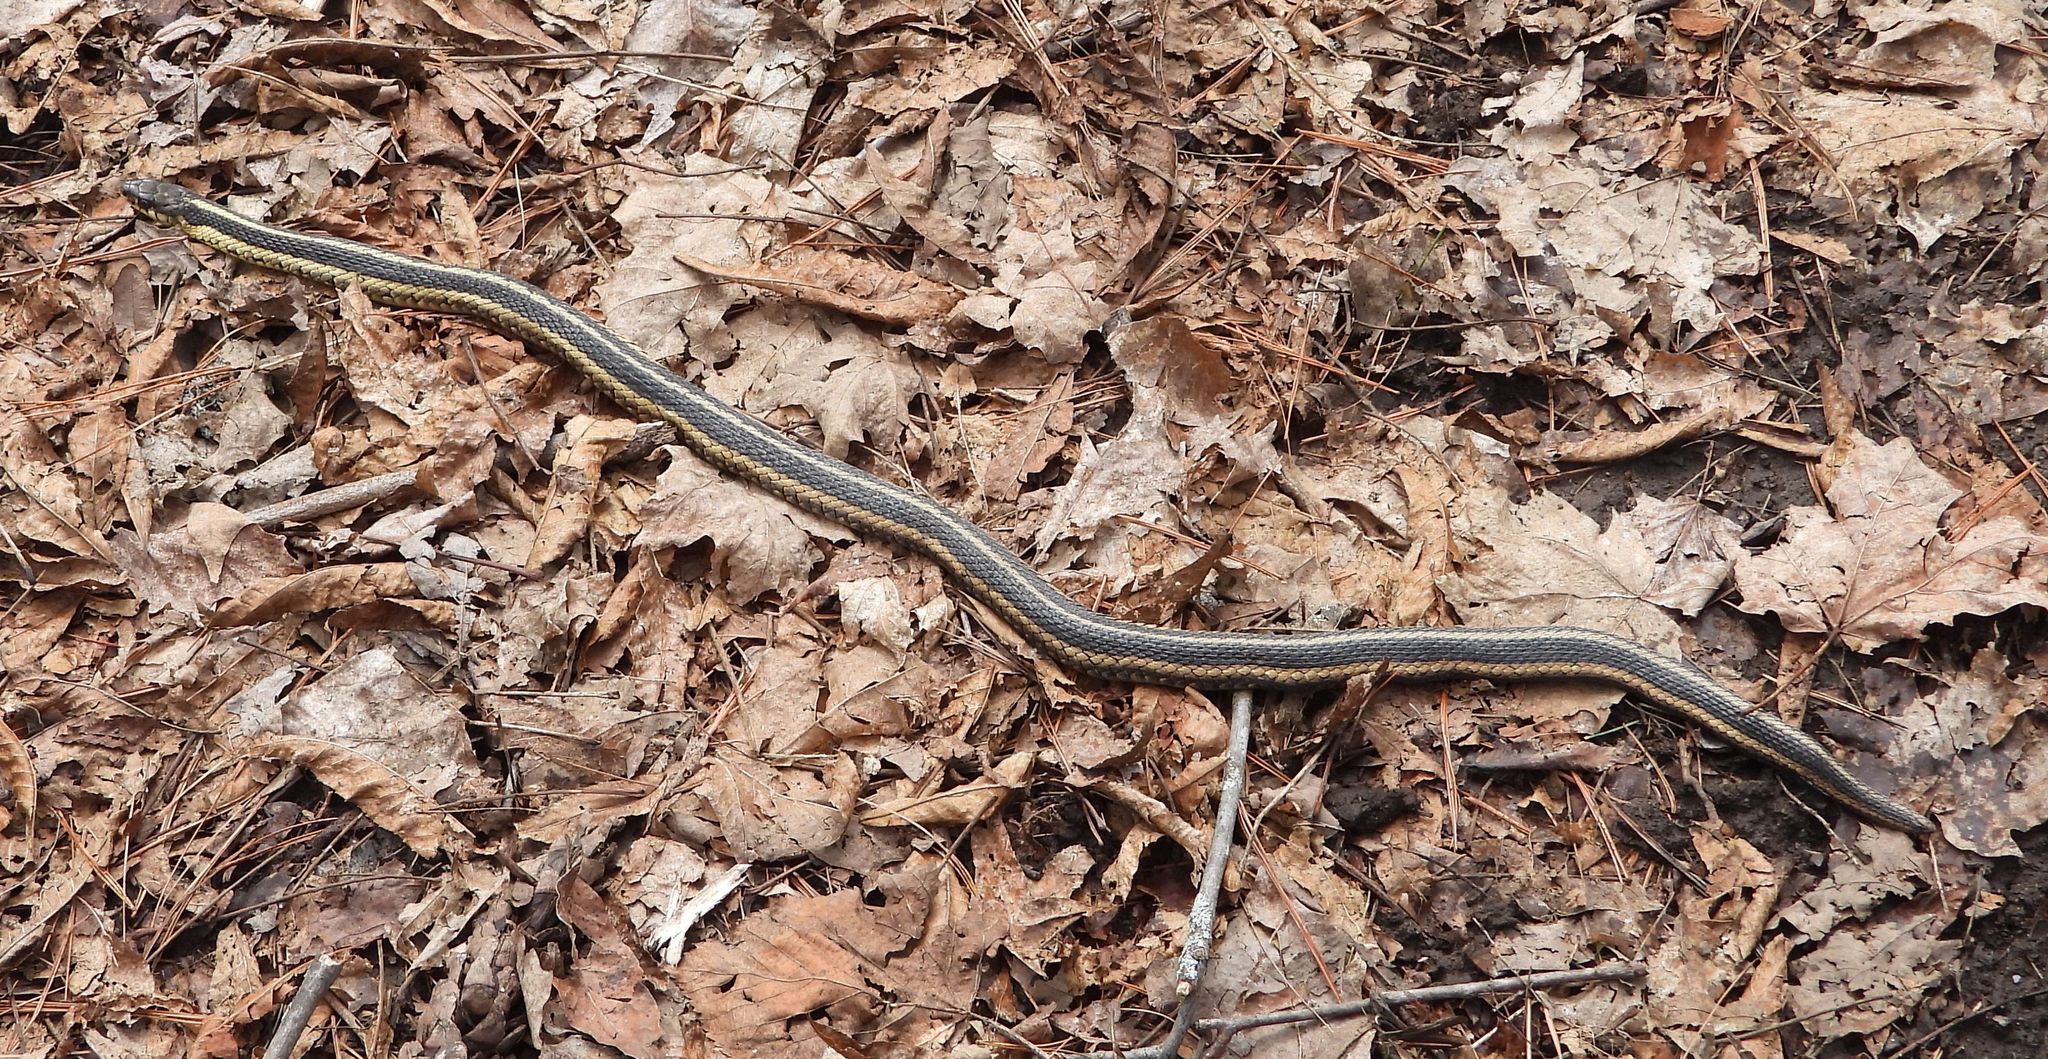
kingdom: Animalia
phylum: Chordata
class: Squamata
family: Colubridae
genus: Thamnophis
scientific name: Thamnophis sirtalis
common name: Common garter snake
